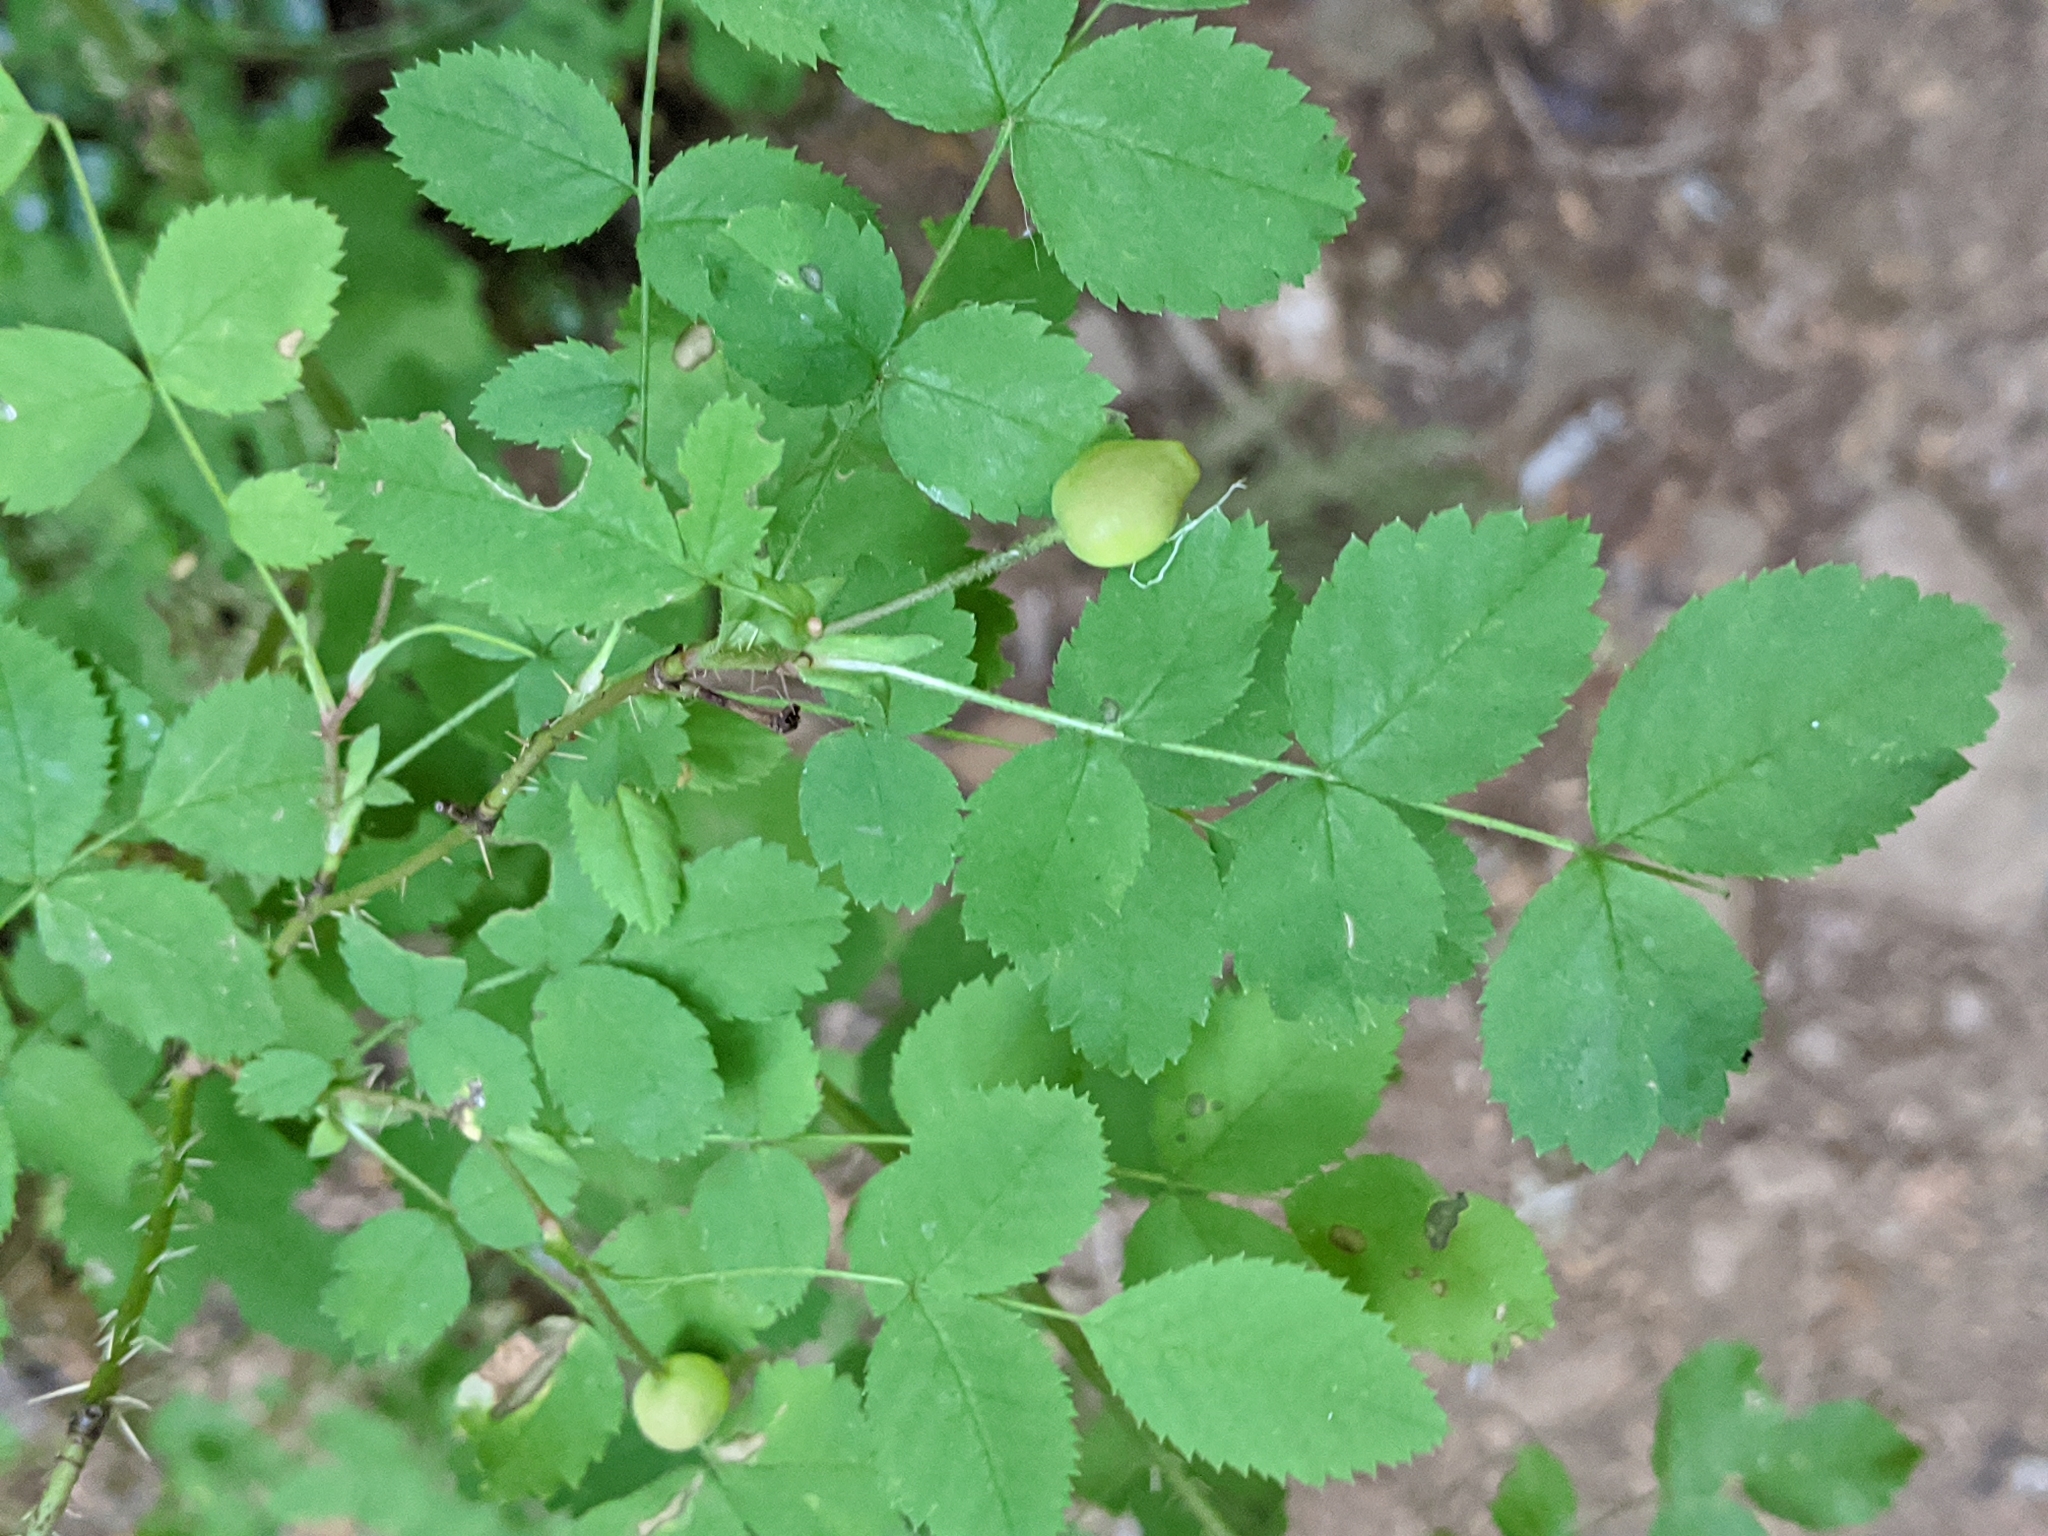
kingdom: Plantae
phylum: Tracheophyta
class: Magnoliopsida
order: Rosales
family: Rosaceae
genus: Rosa
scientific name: Rosa gymnocarpa
